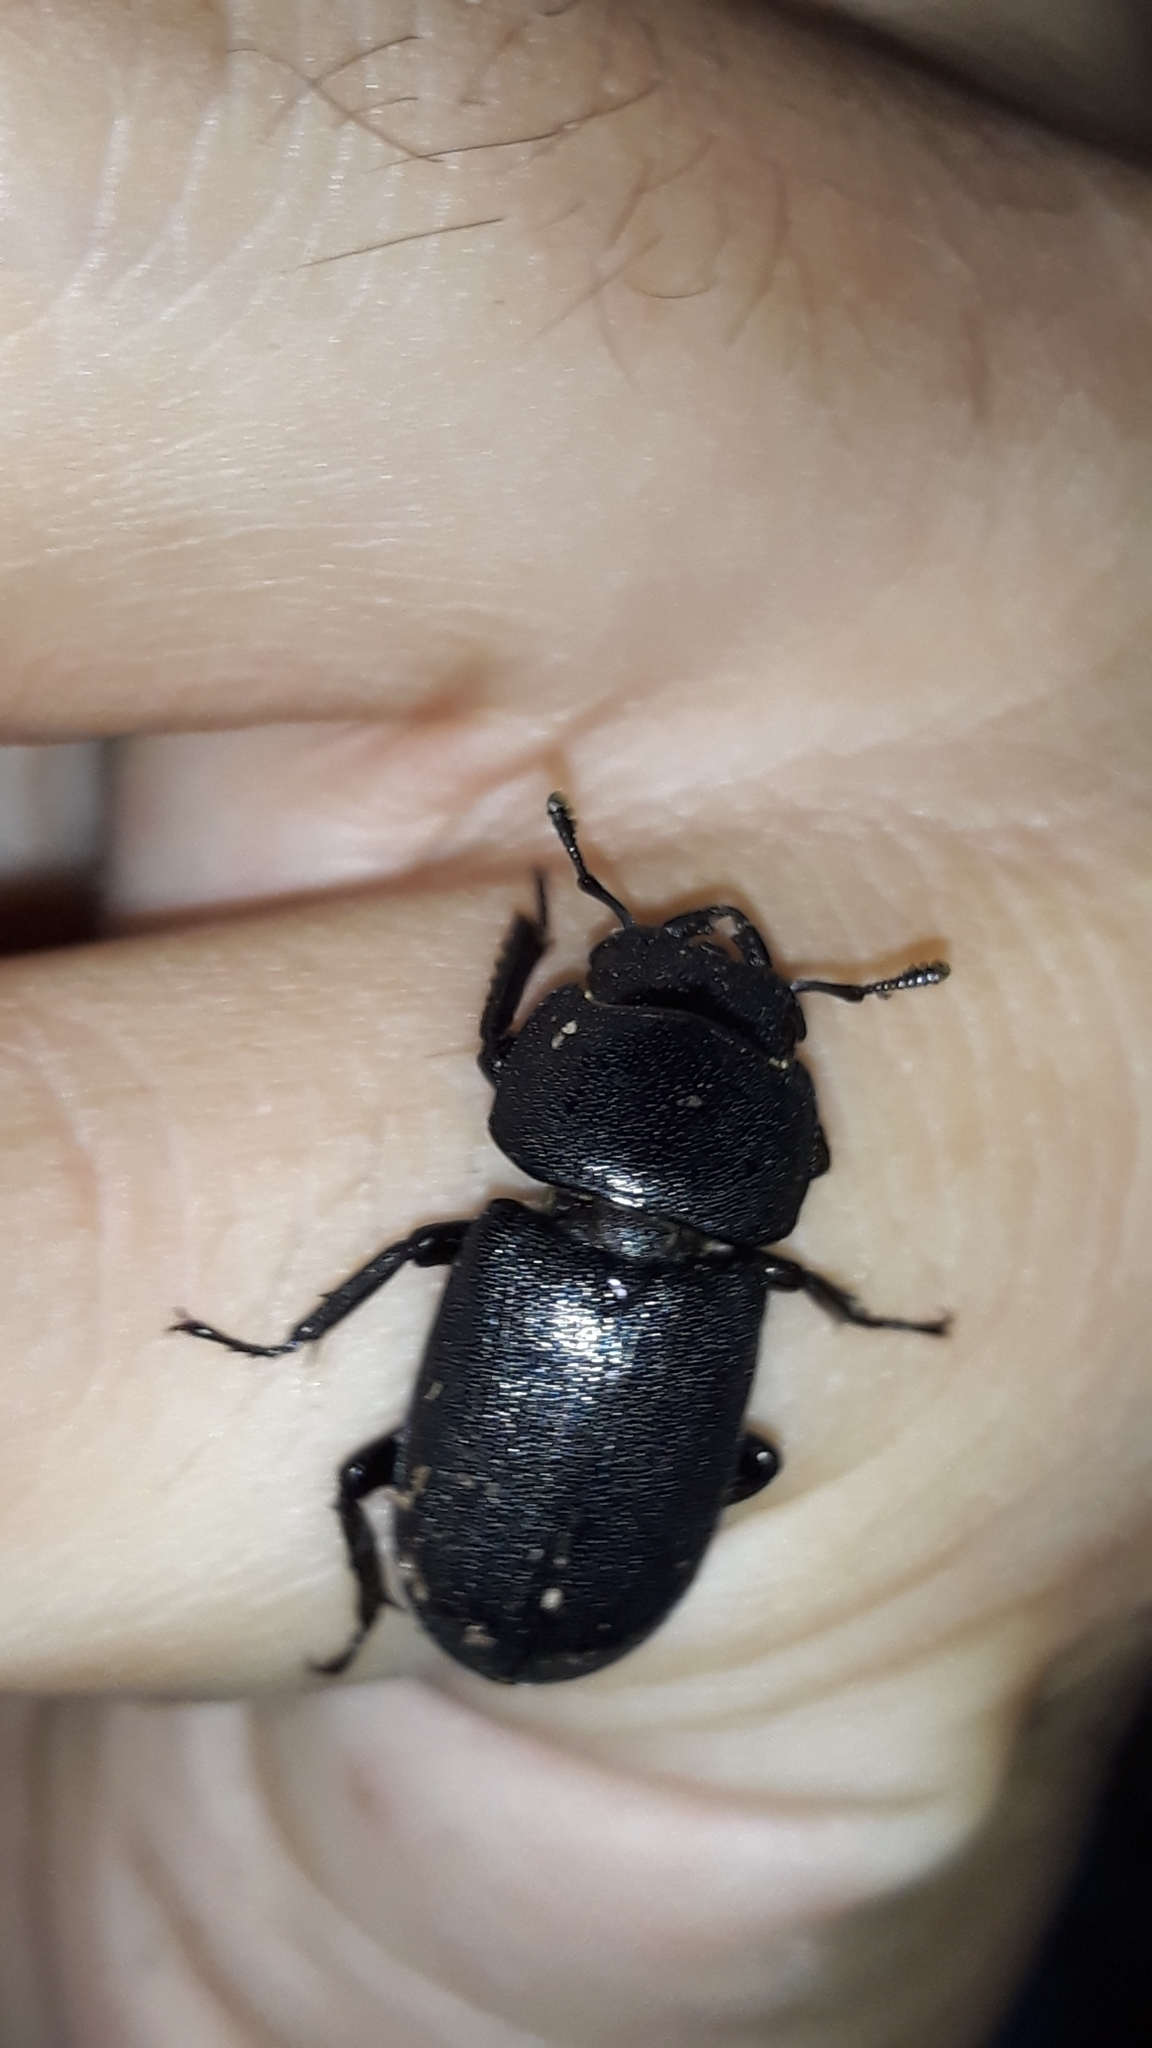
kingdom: Animalia
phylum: Arthropoda
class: Insecta
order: Coleoptera
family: Lucanidae
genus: Dorcus
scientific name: Dorcus parallelipipedus
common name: Lesser stag beetle
